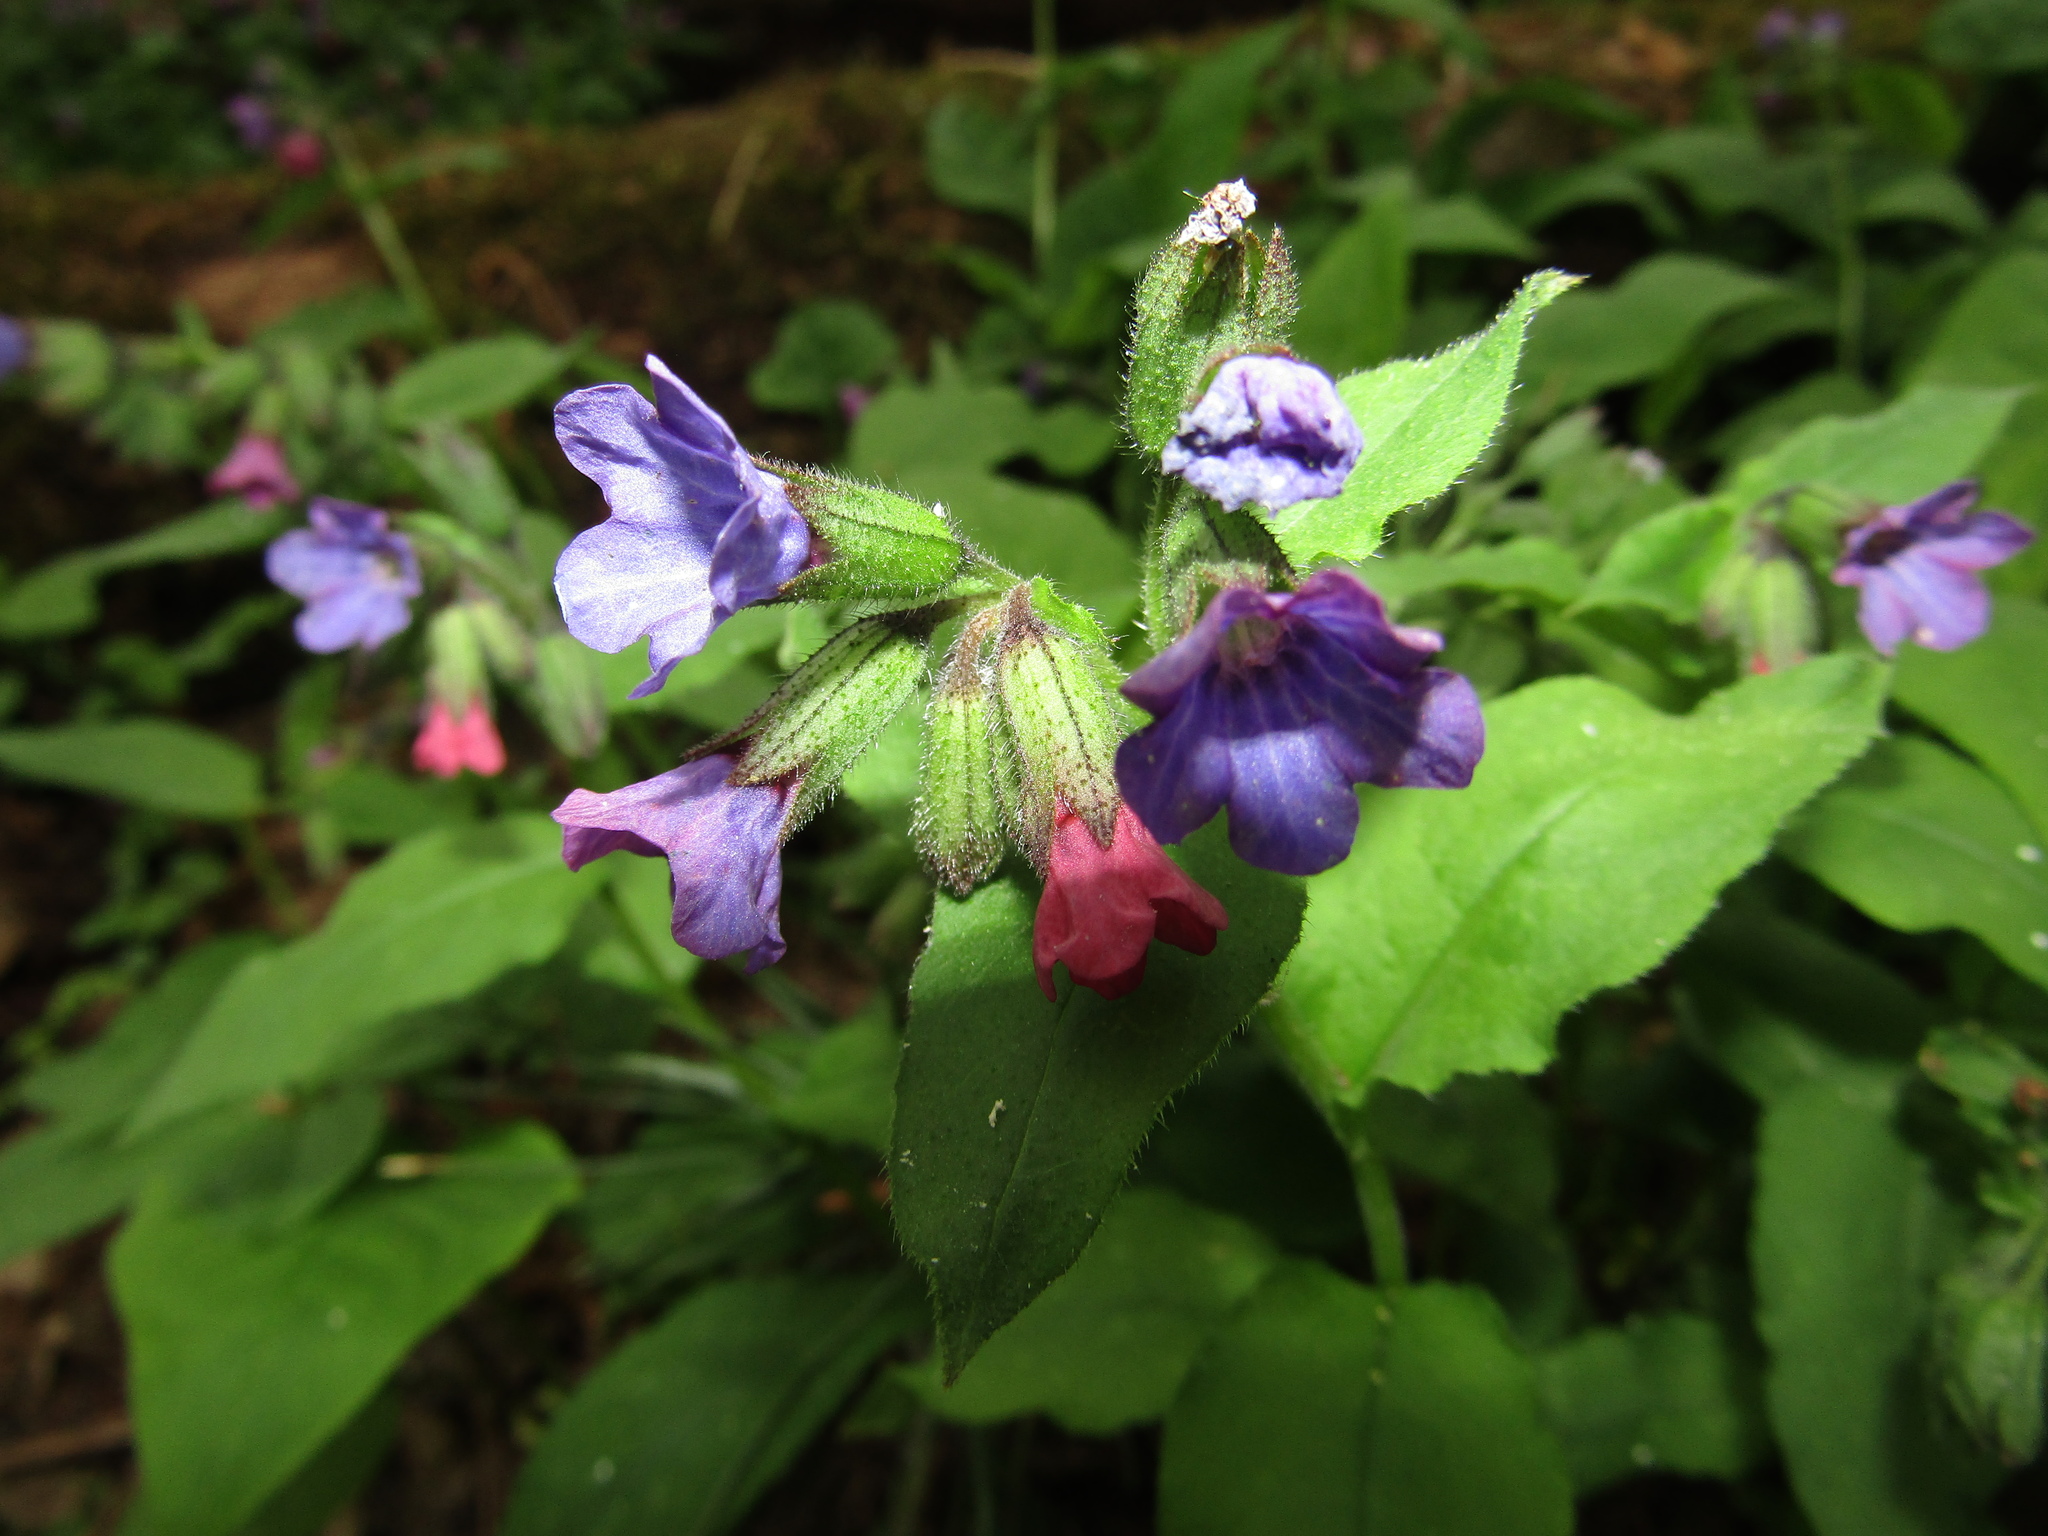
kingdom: Plantae
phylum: Tracheophyta
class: Magnoliopsida
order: Boraginales
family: Boraginaceae
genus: Pulmonaria
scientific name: Pulmonaria obscura
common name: Suffolk lungwort
